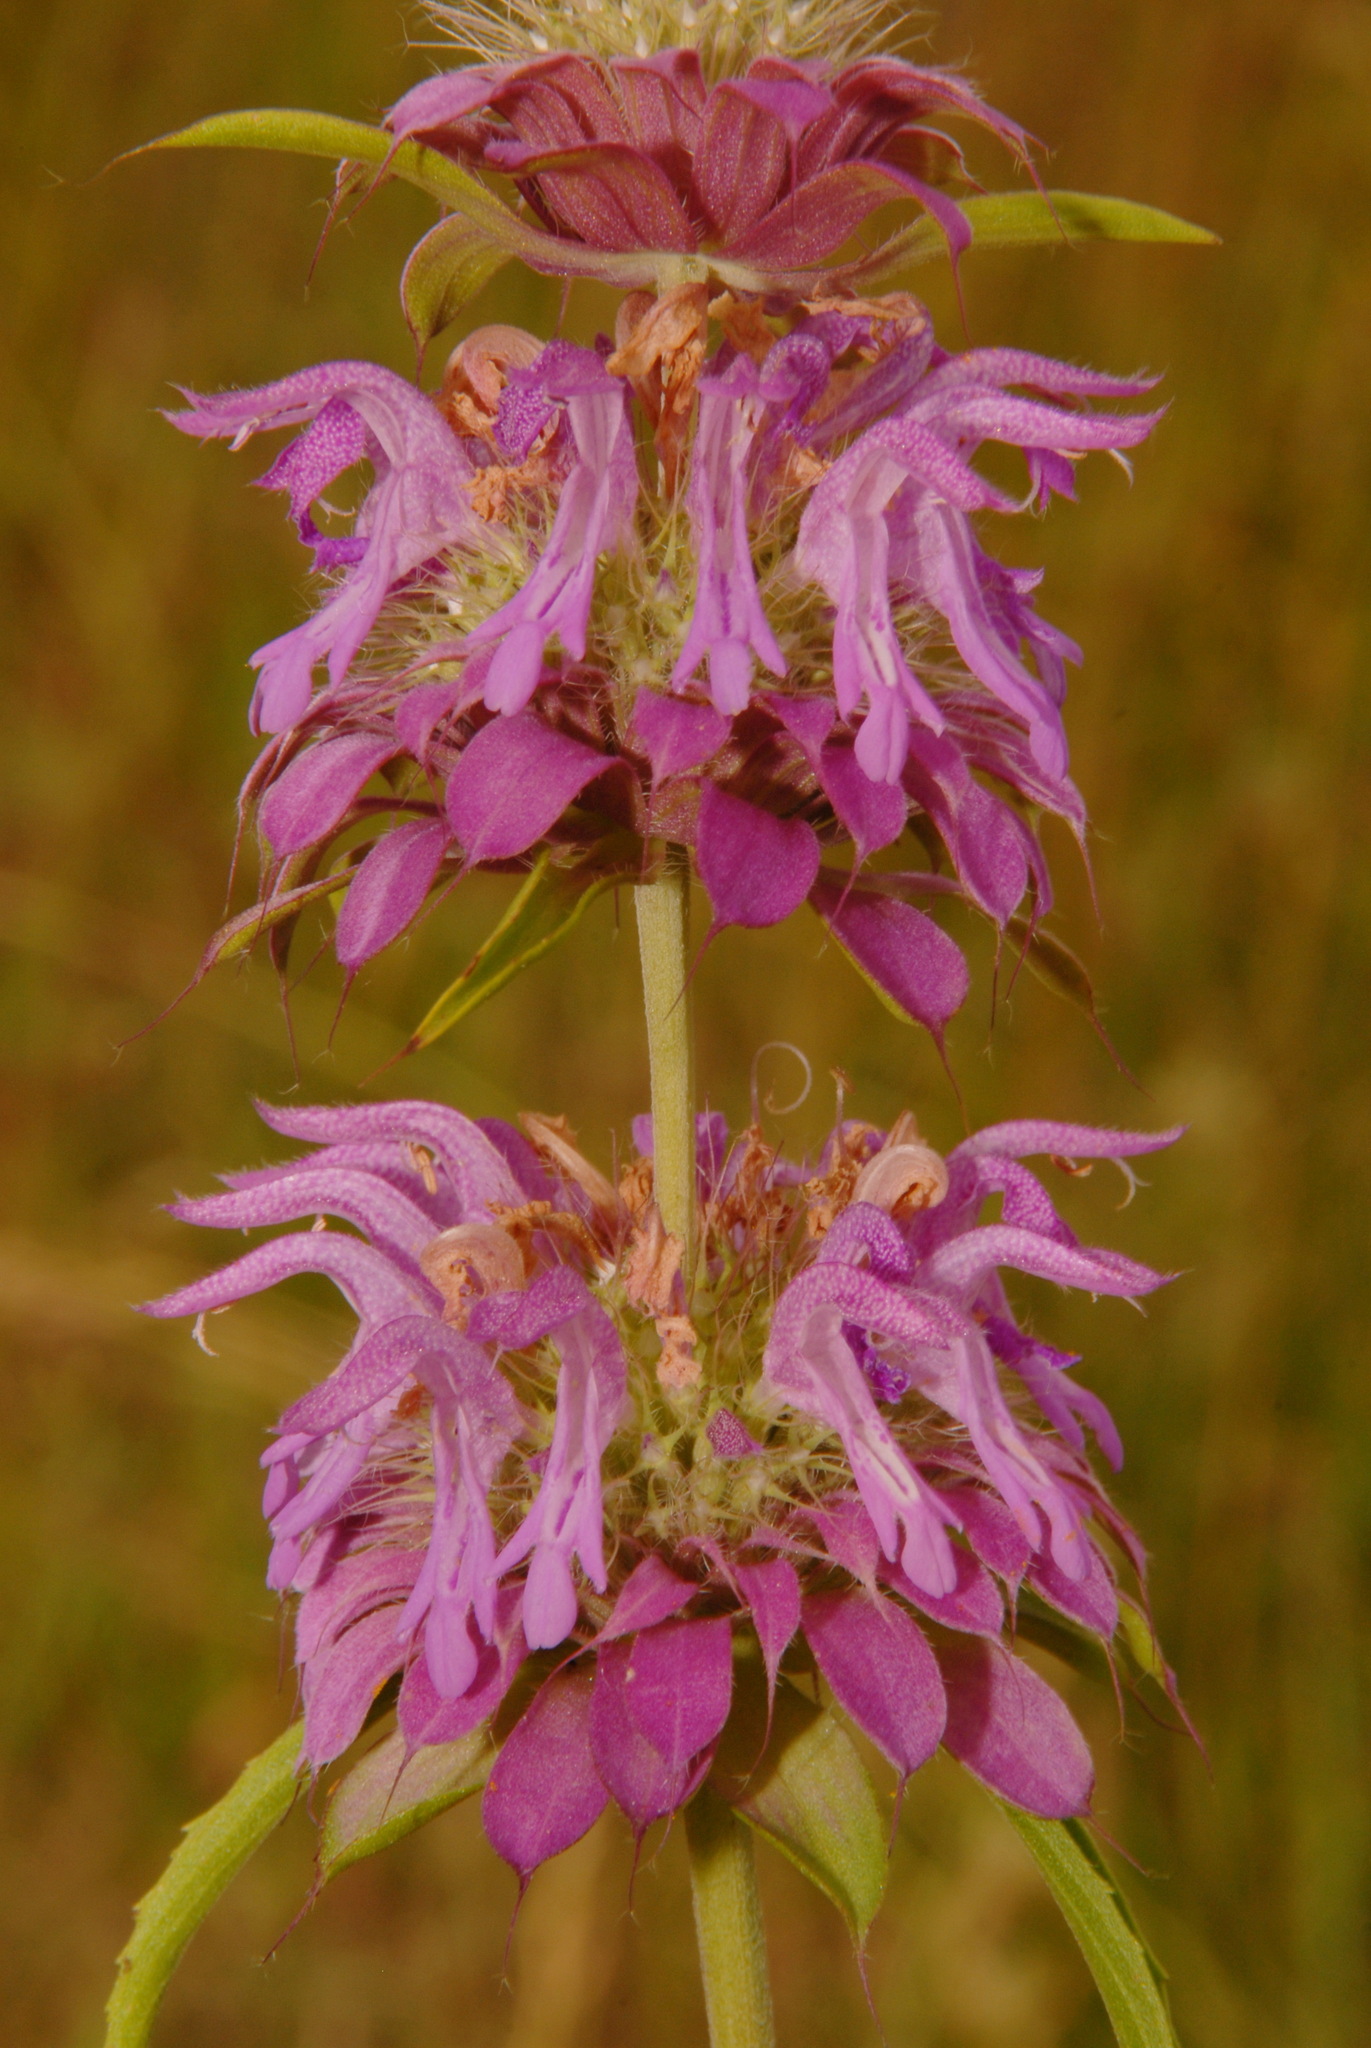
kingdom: Plantae
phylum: Tracheophyta
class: Magnoliopsida
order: Lamiales
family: Lamiaceae
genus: Monarda
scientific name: Monarda citriodora
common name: Lemon beebalm
